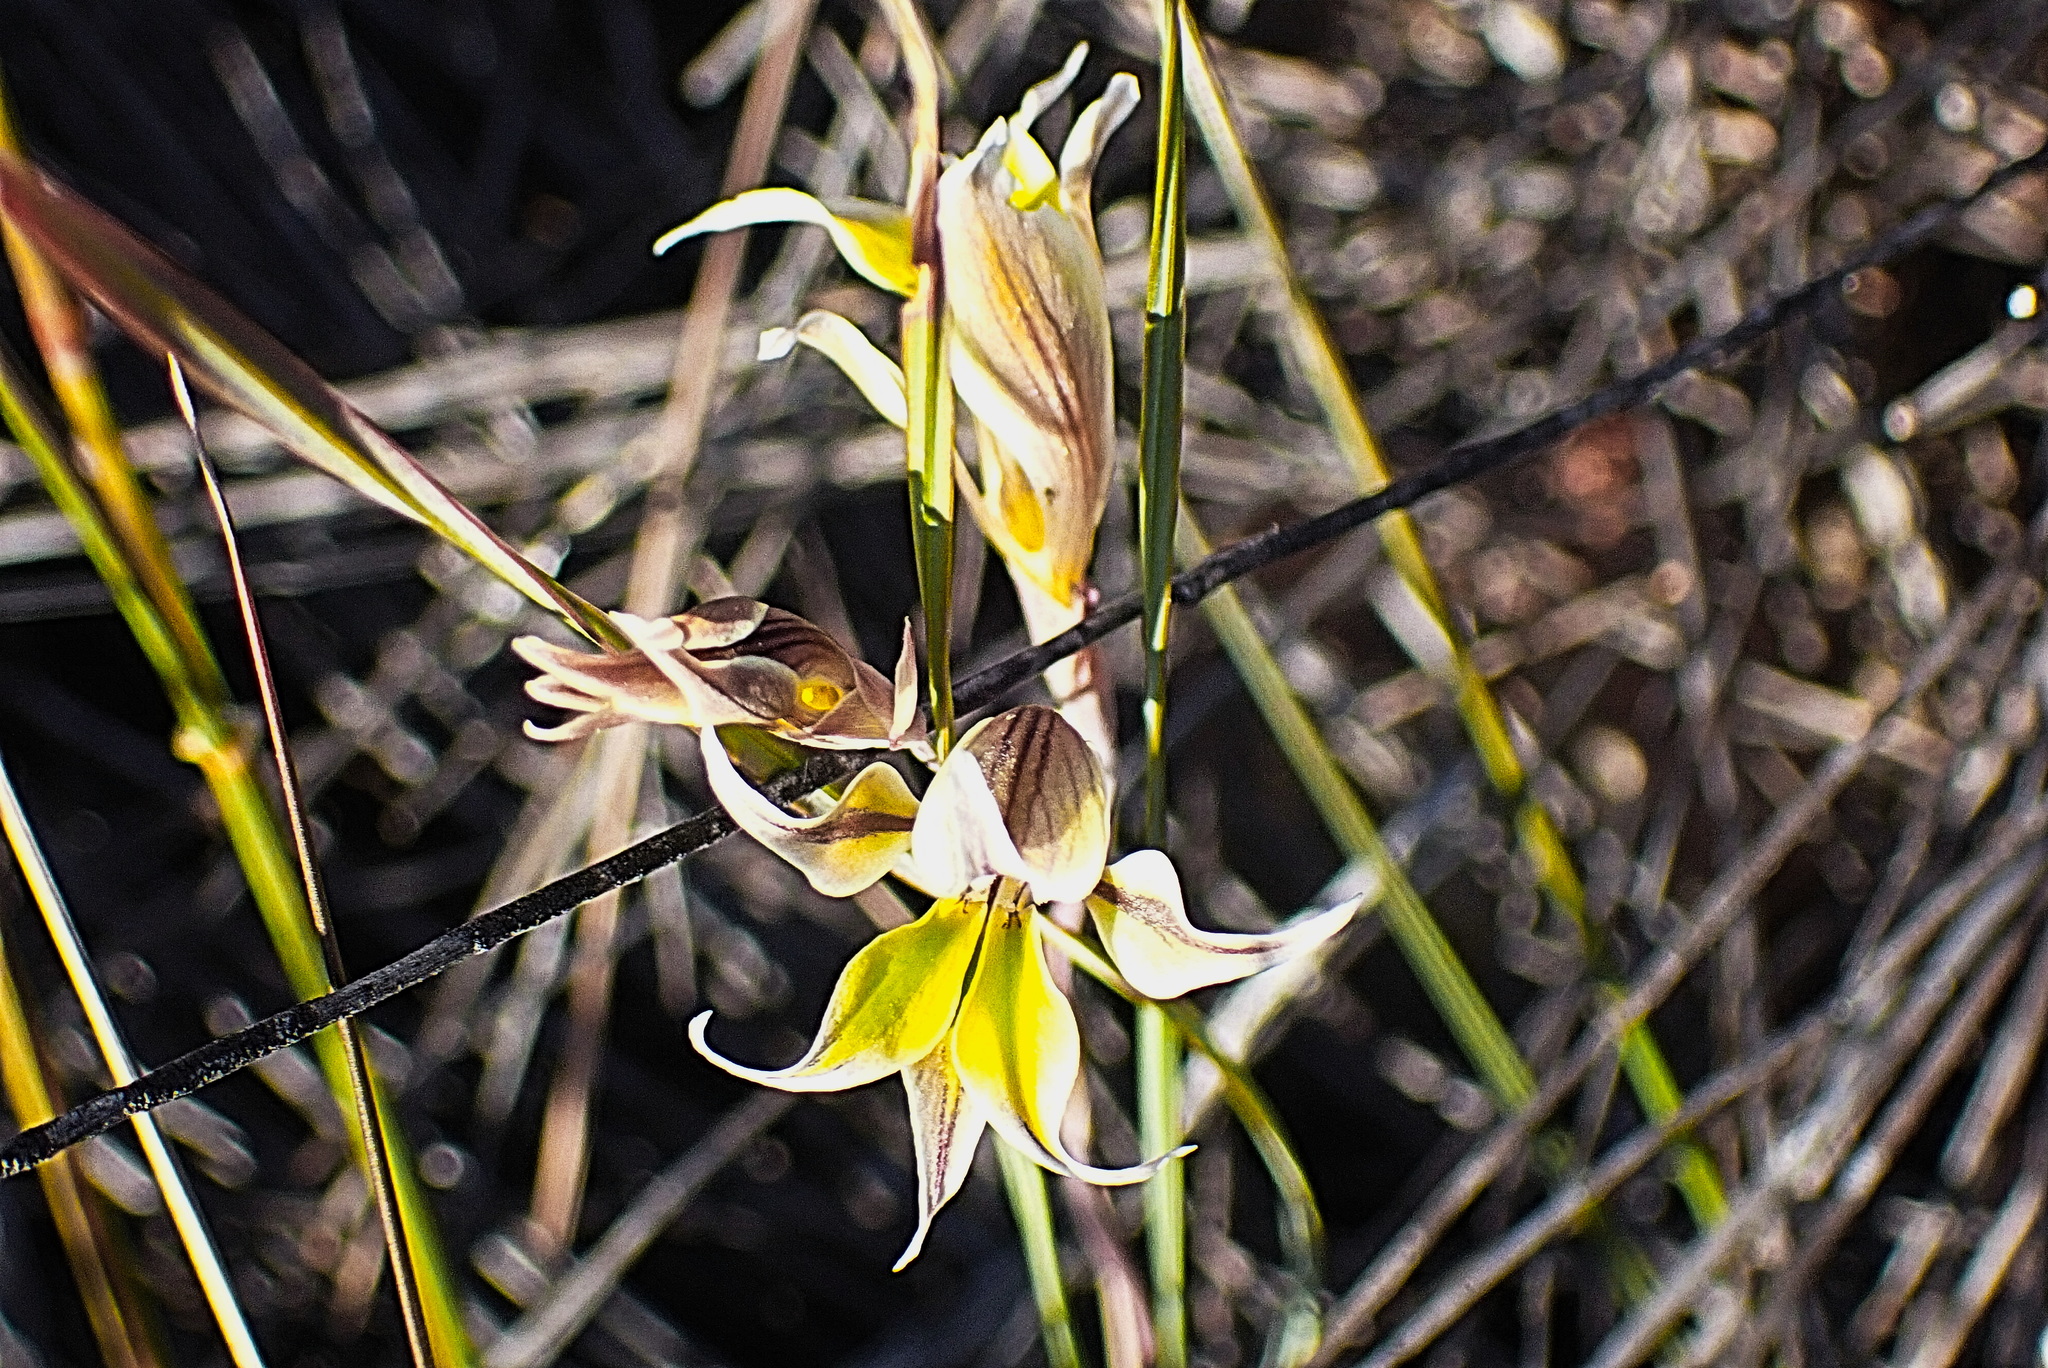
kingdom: Plantae
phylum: Tracheophyta
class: Liliopsida
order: Asparagales
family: Iridaceae
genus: Gladiolus
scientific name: Gladiolus permeabilis
